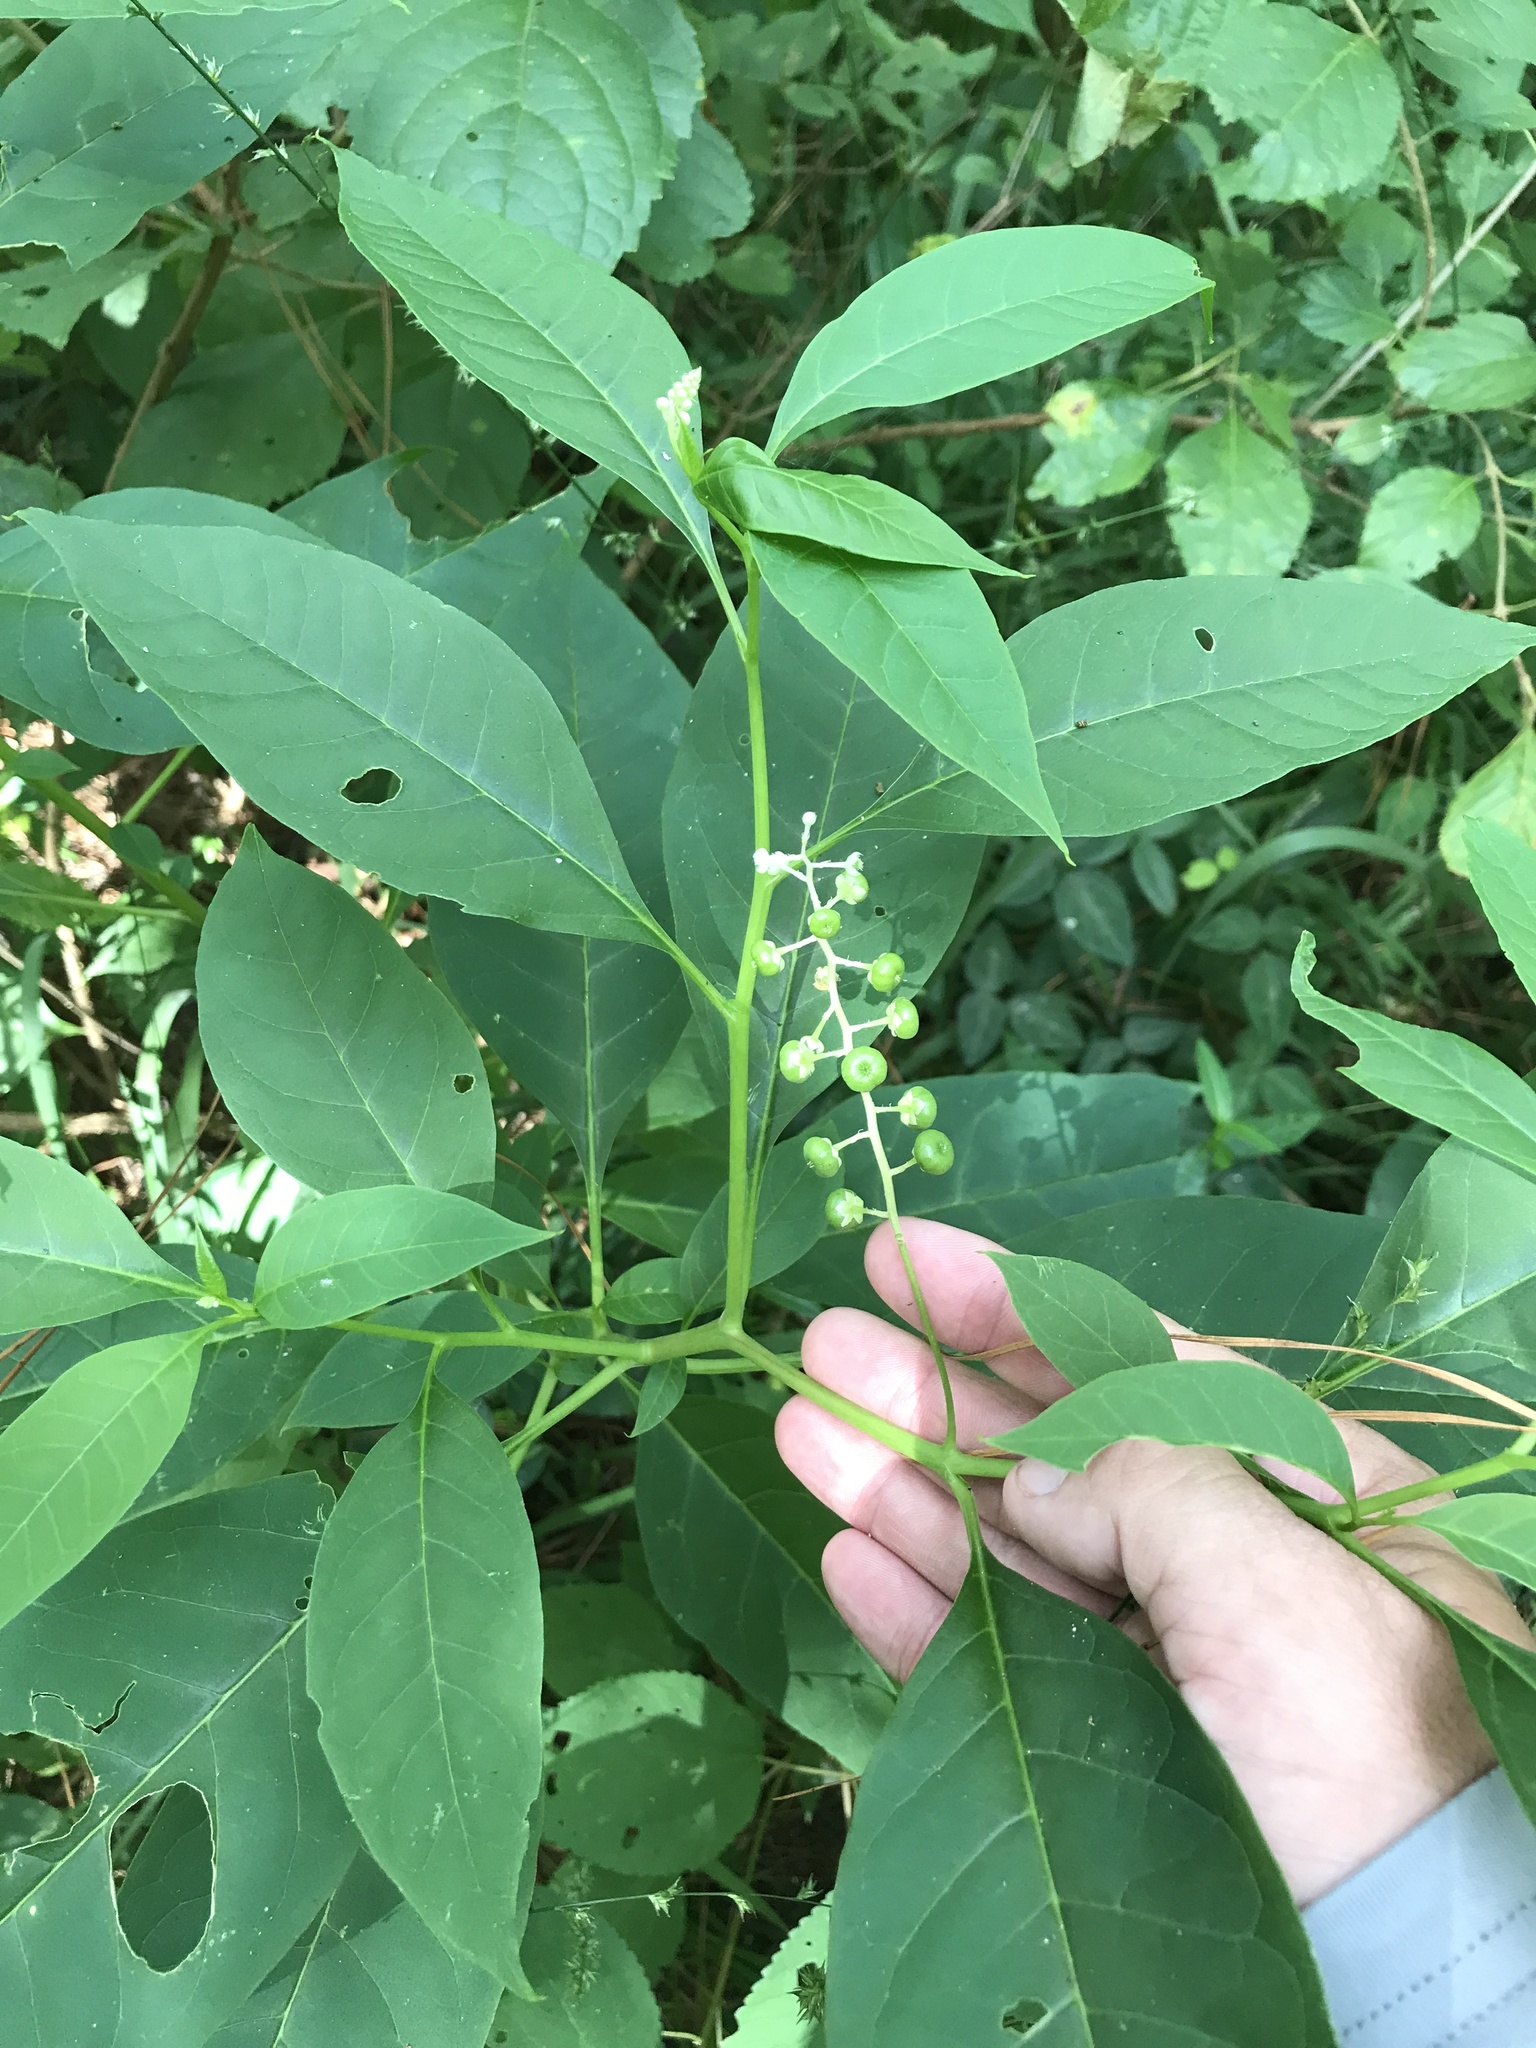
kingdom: Plantae
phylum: Tracheophyta
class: Magnoliopsida
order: Caryophyllales
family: Phytolaccaceae
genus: Phytolacca
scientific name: Phytolacca americana
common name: American pokeweed
